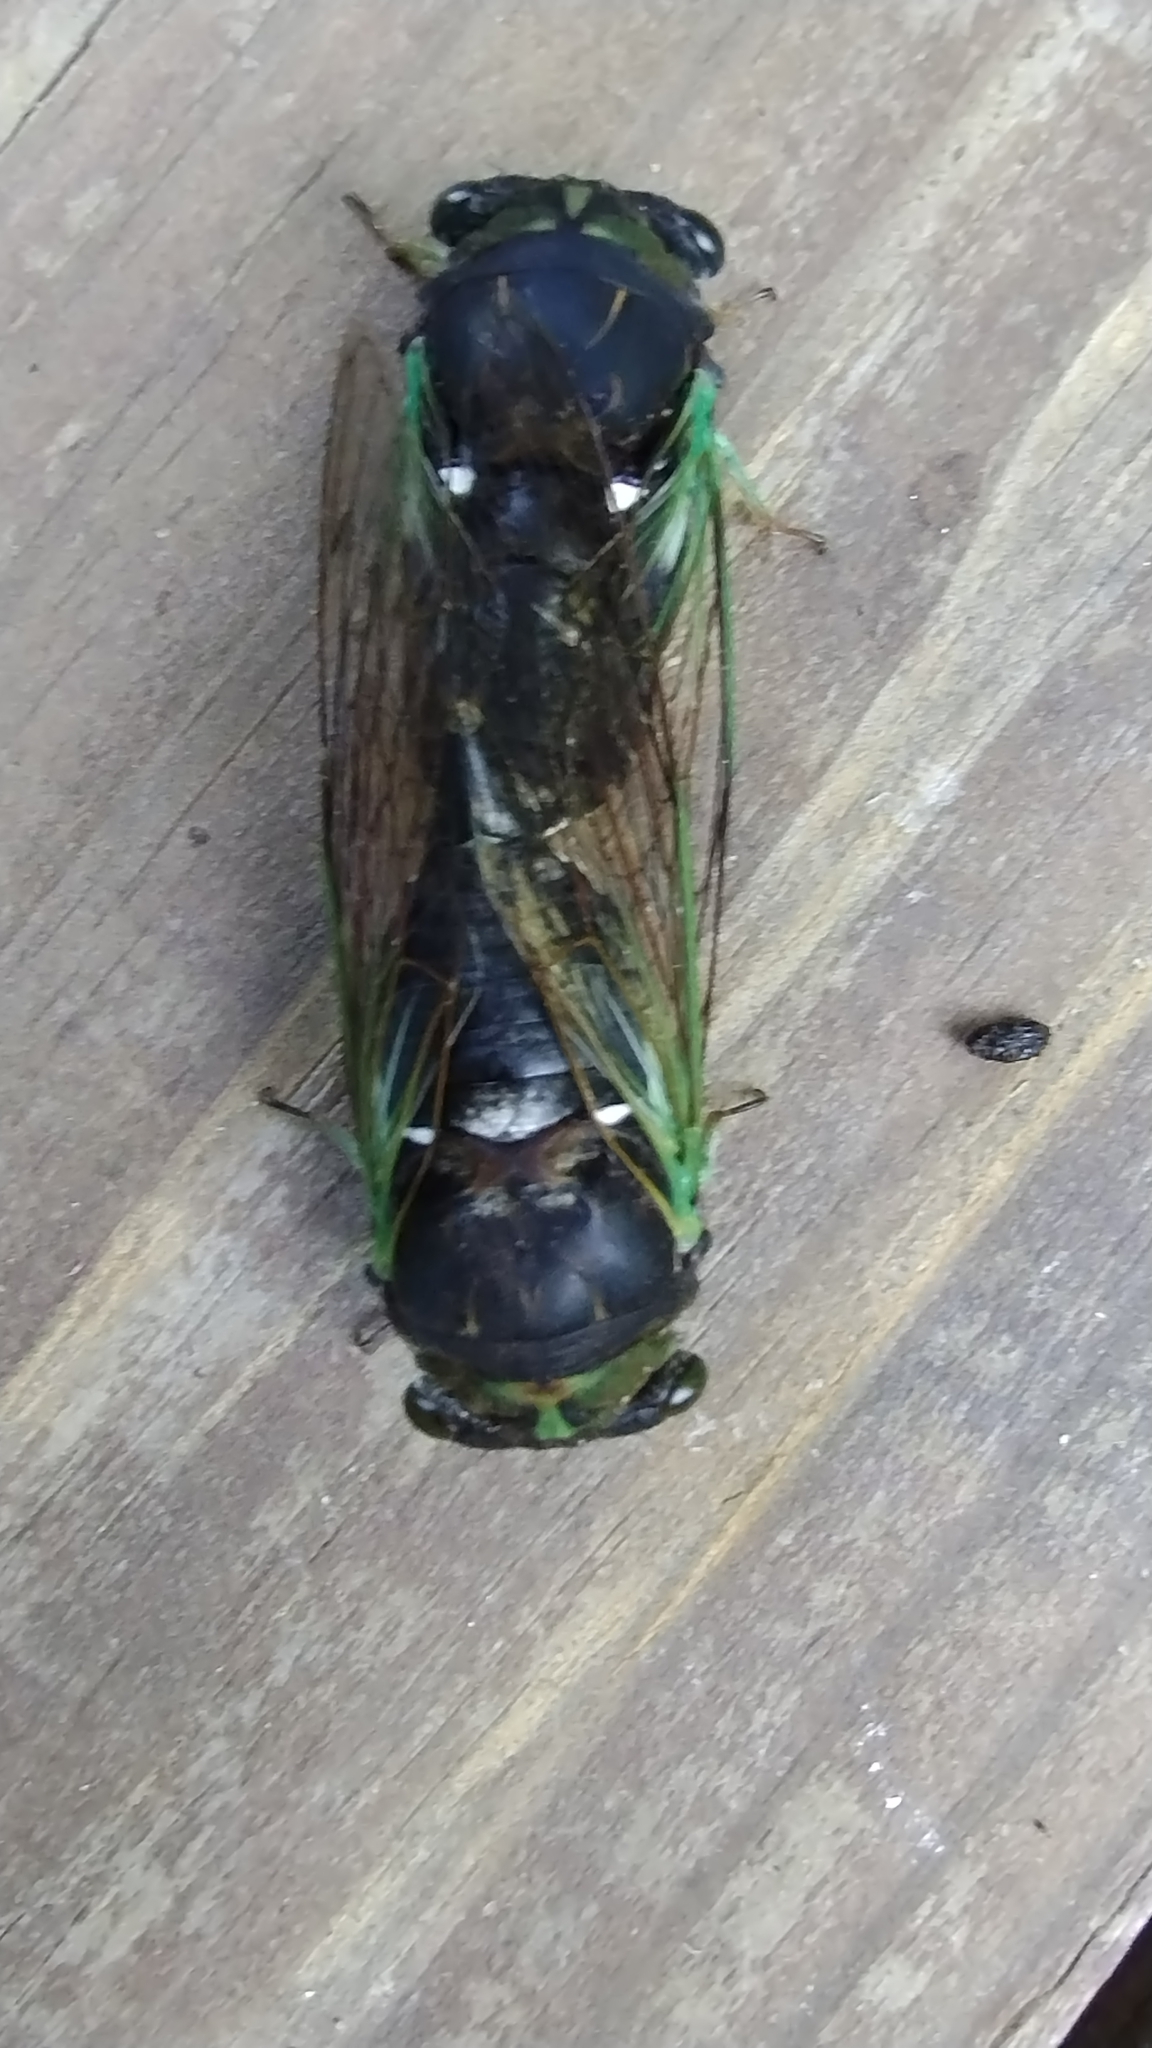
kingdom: Animalia
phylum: Arthropoda
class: Insecta
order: Hemiptera
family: Cicadidae
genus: Neotibicen
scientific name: Neotibicen tibicen
